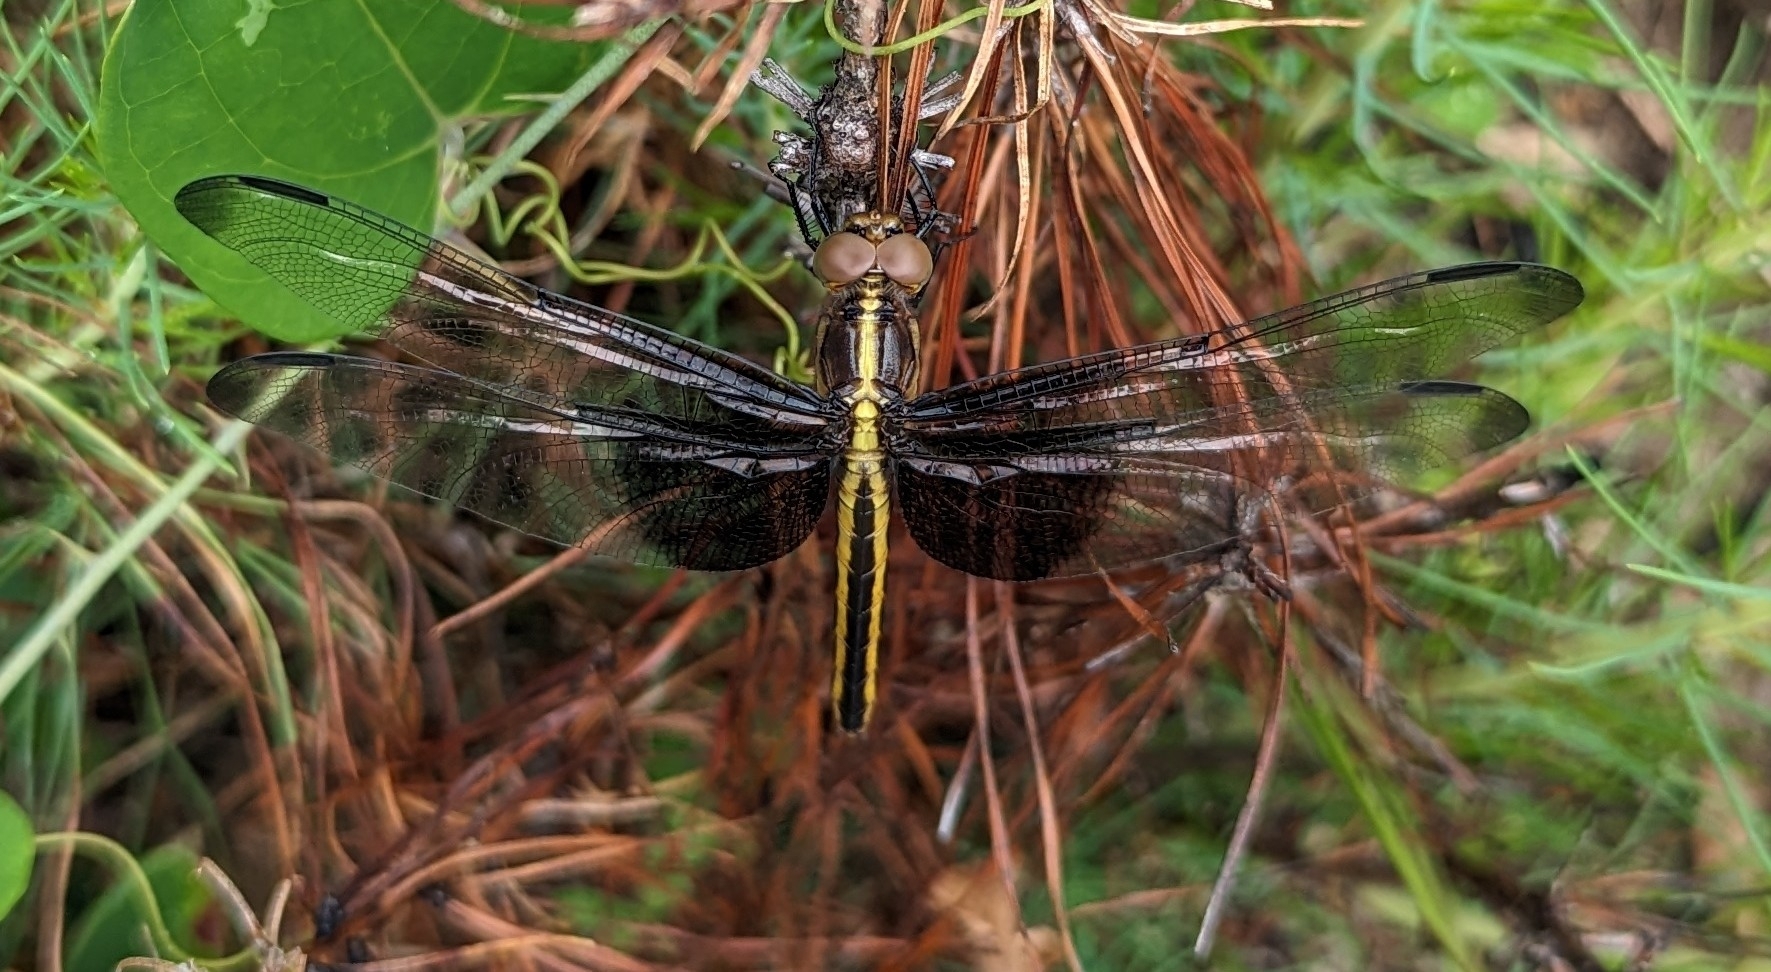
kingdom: Animalia
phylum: Arthropoda
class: Insecta
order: Odonata
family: Libellulidae
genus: Libellula
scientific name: Libellula luctuosa
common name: Widow skimmer
